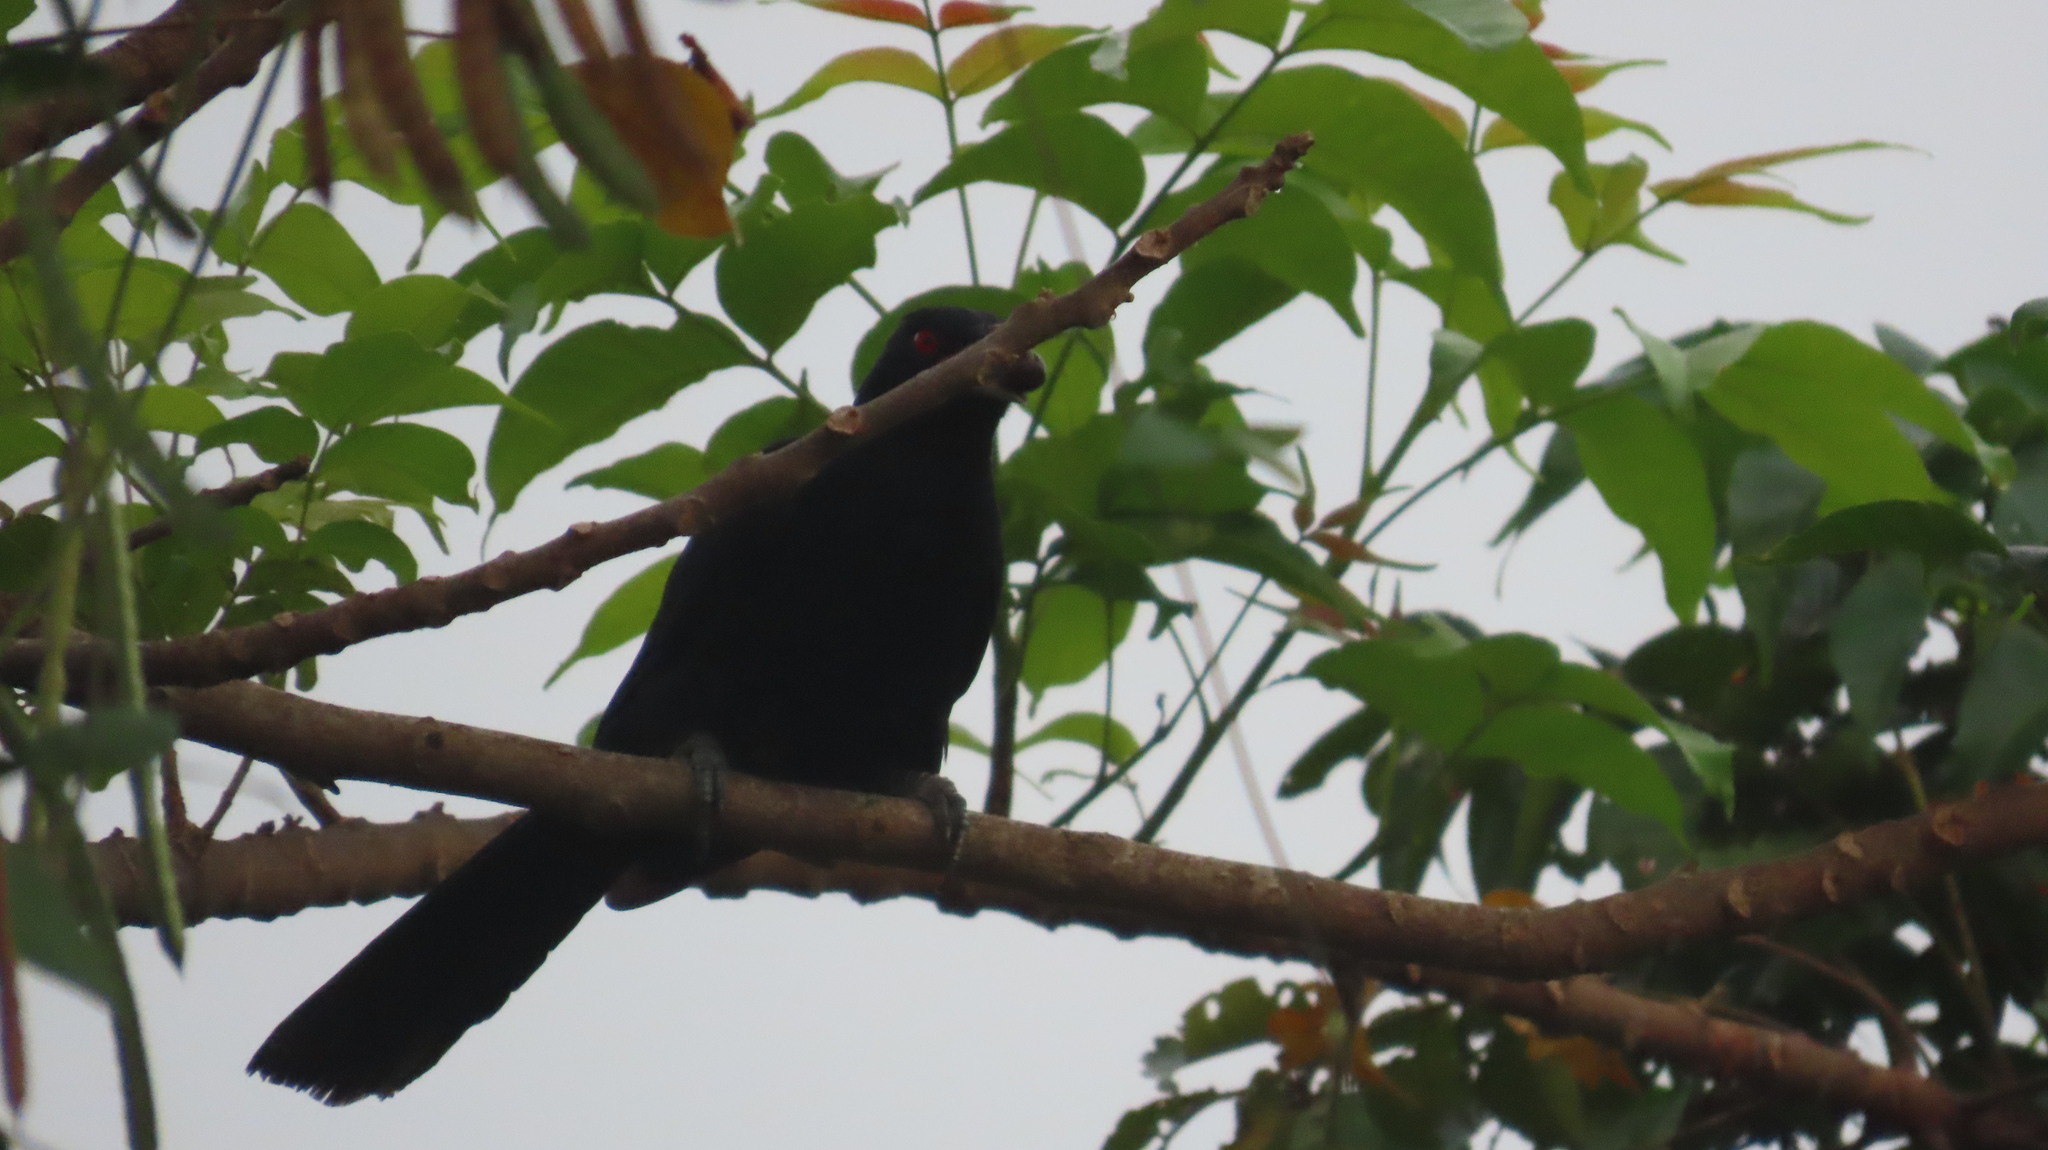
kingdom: Animalia
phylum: Chordata
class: Aves
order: Cuculiformes
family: Cuculidae
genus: Eudynamys
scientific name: Eudynamys scolopaceus
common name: Asian koel
